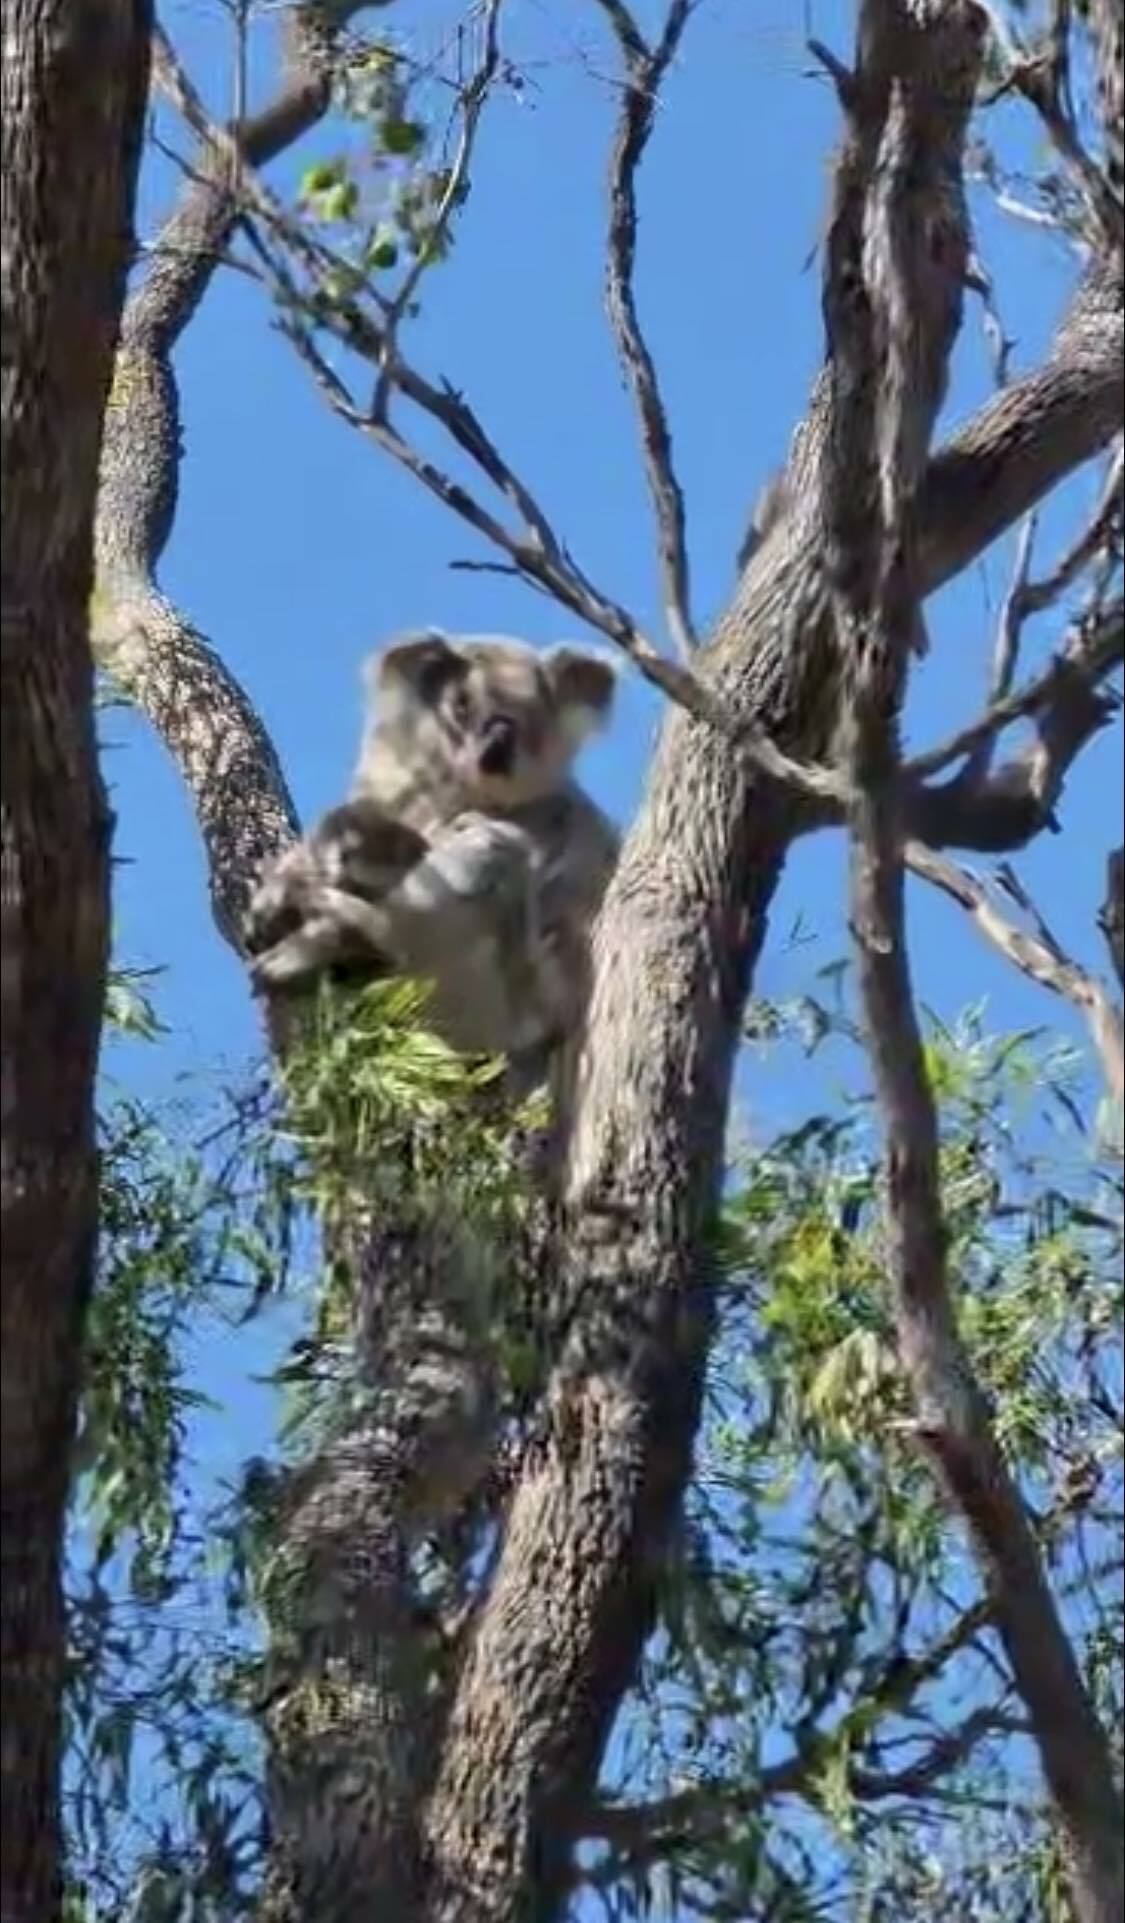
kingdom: Animalia
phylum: Chordata
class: Mammalia
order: Diprotodontia
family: Phascolarctidae
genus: Phascolarctos
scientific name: Phascolarctos cinereus
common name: Koala
